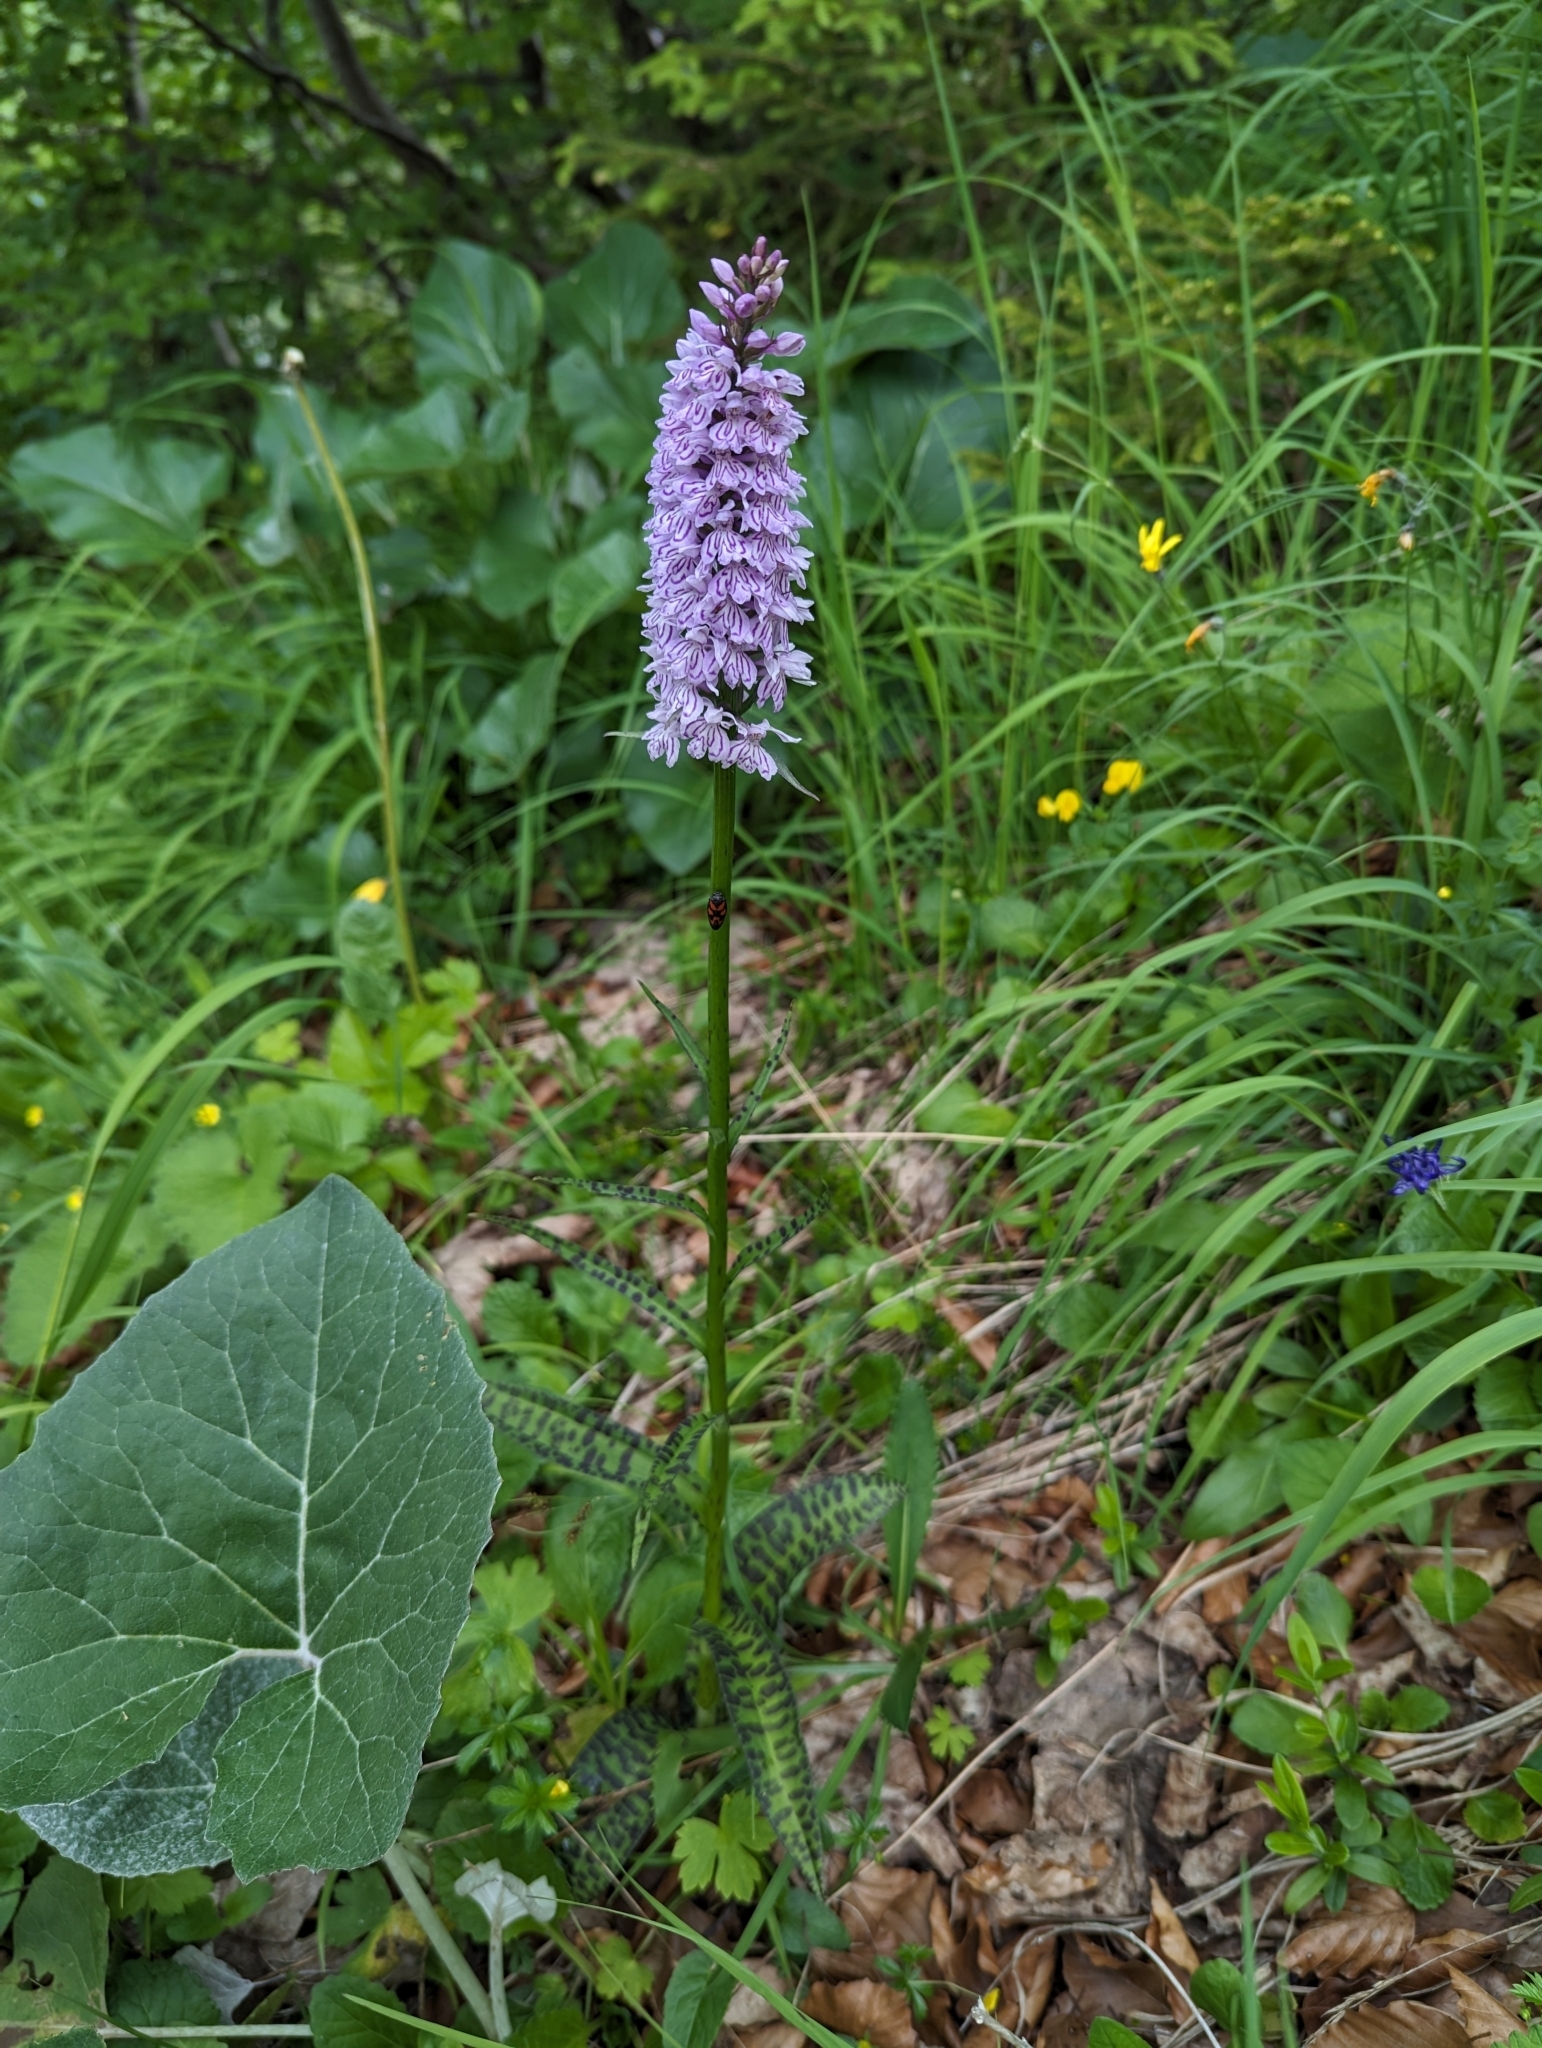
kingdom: Plantae
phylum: Tracheophyta
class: Liliopsida
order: Asparagales
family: Orchidaceae
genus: Dactylorhiza
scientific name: Dactylorhiza maculata
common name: Heath spotted-orchid
